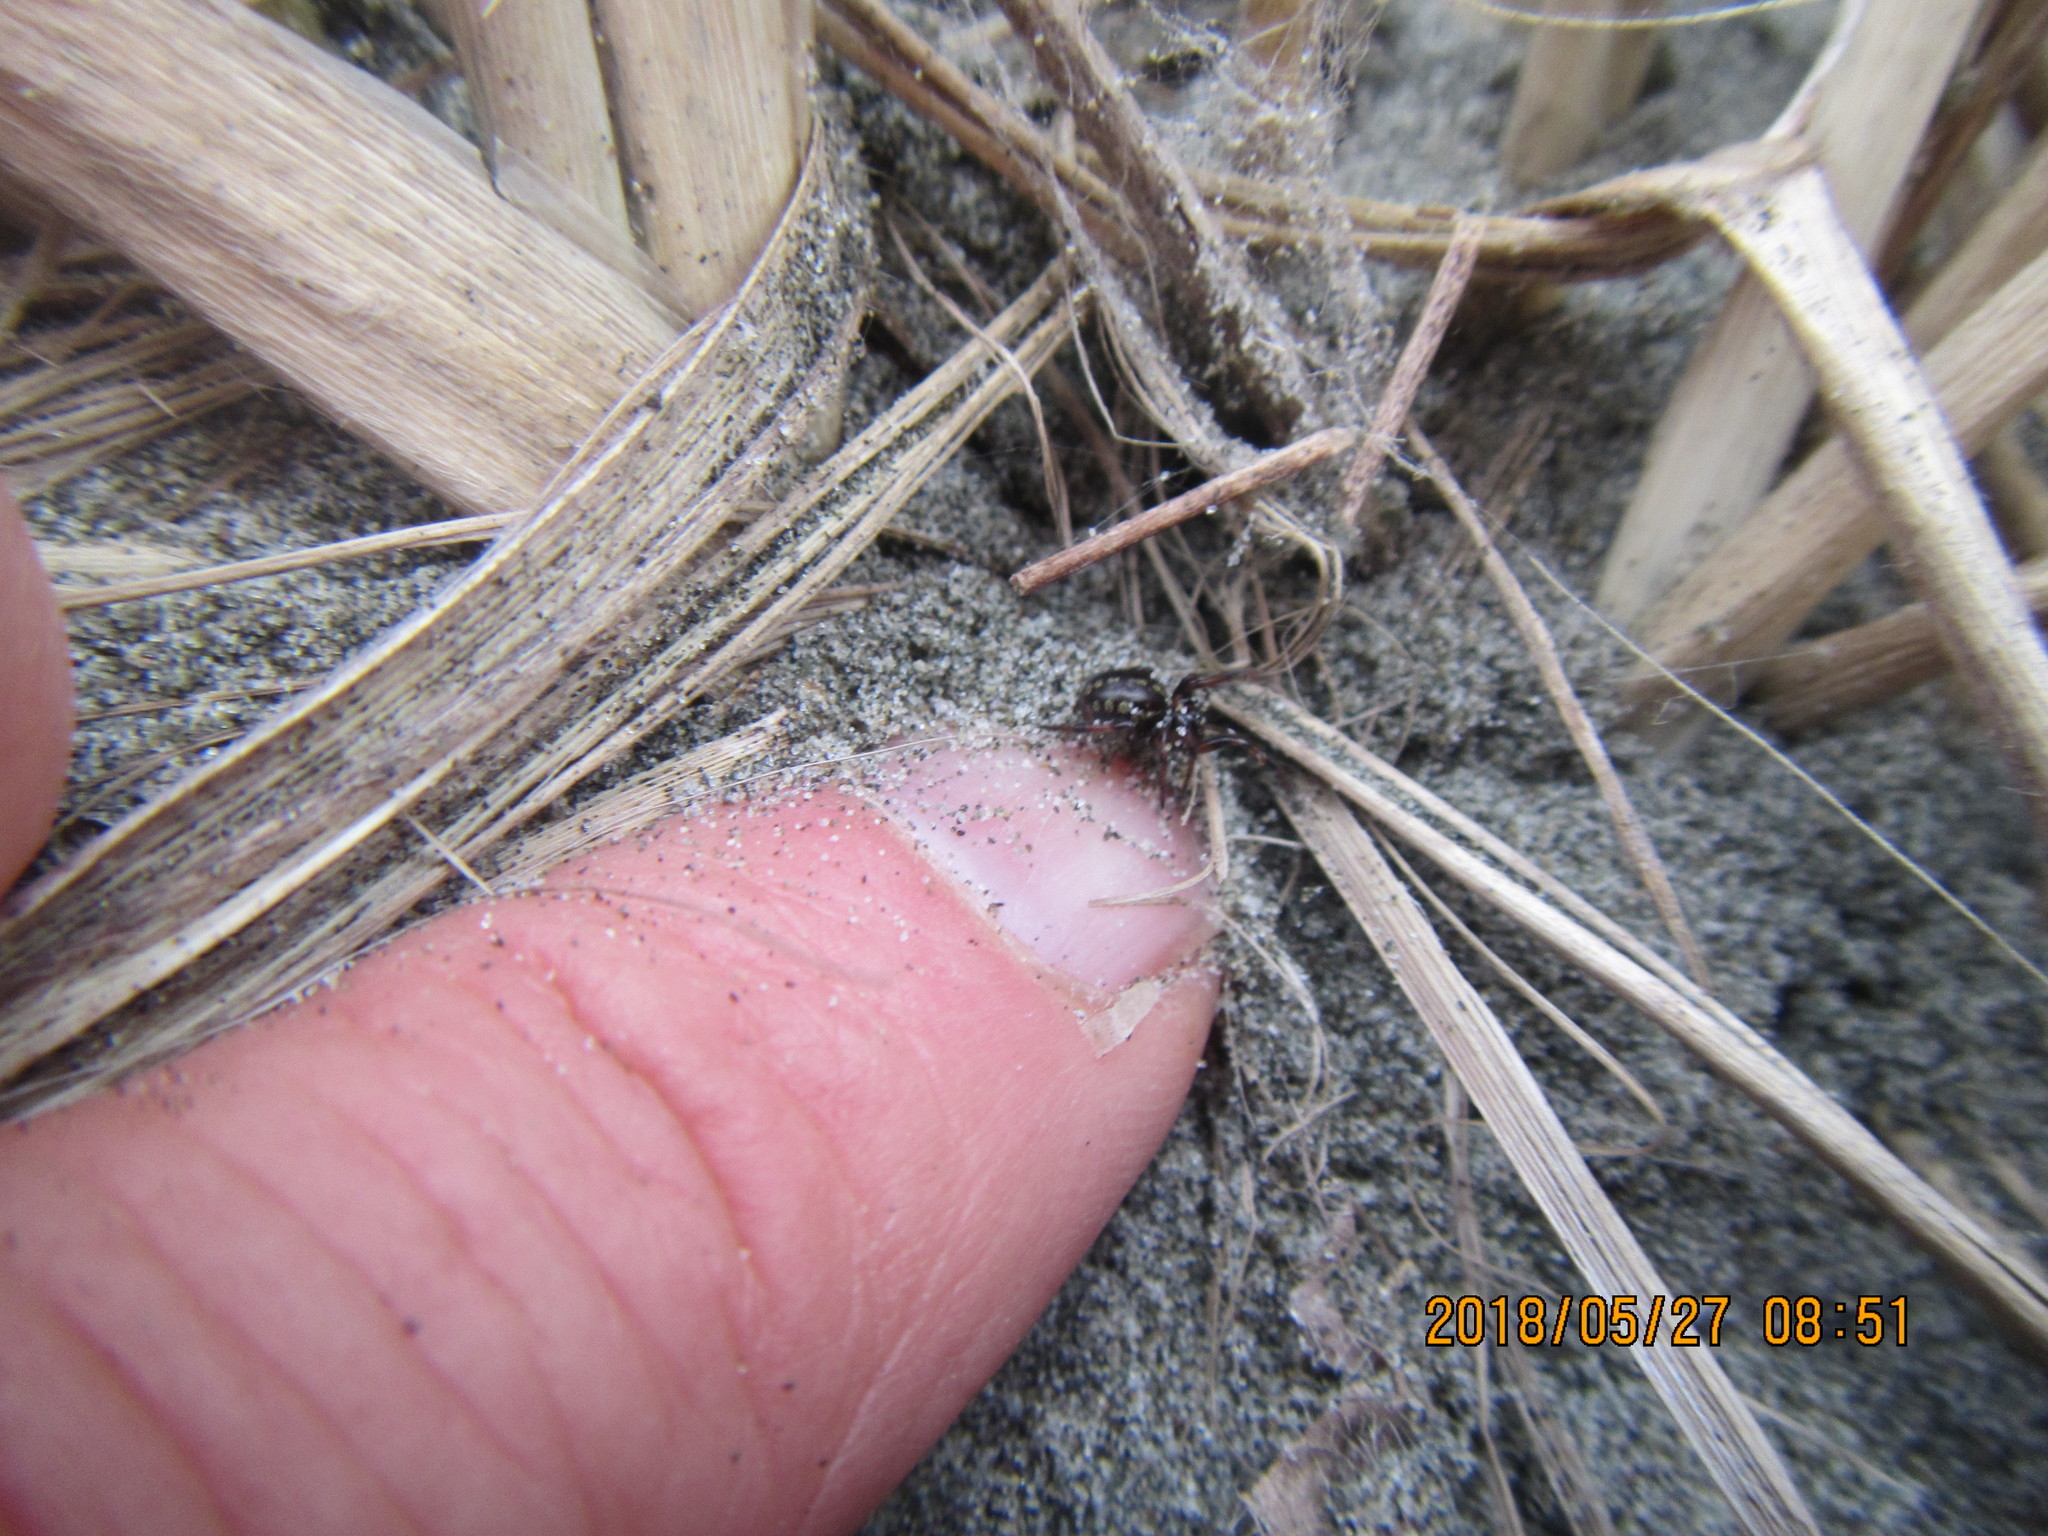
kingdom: Animalia
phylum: Arthropoda
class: Arachnida
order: Araneae
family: Theridiidae
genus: Steatoda
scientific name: Steatoda lepida
